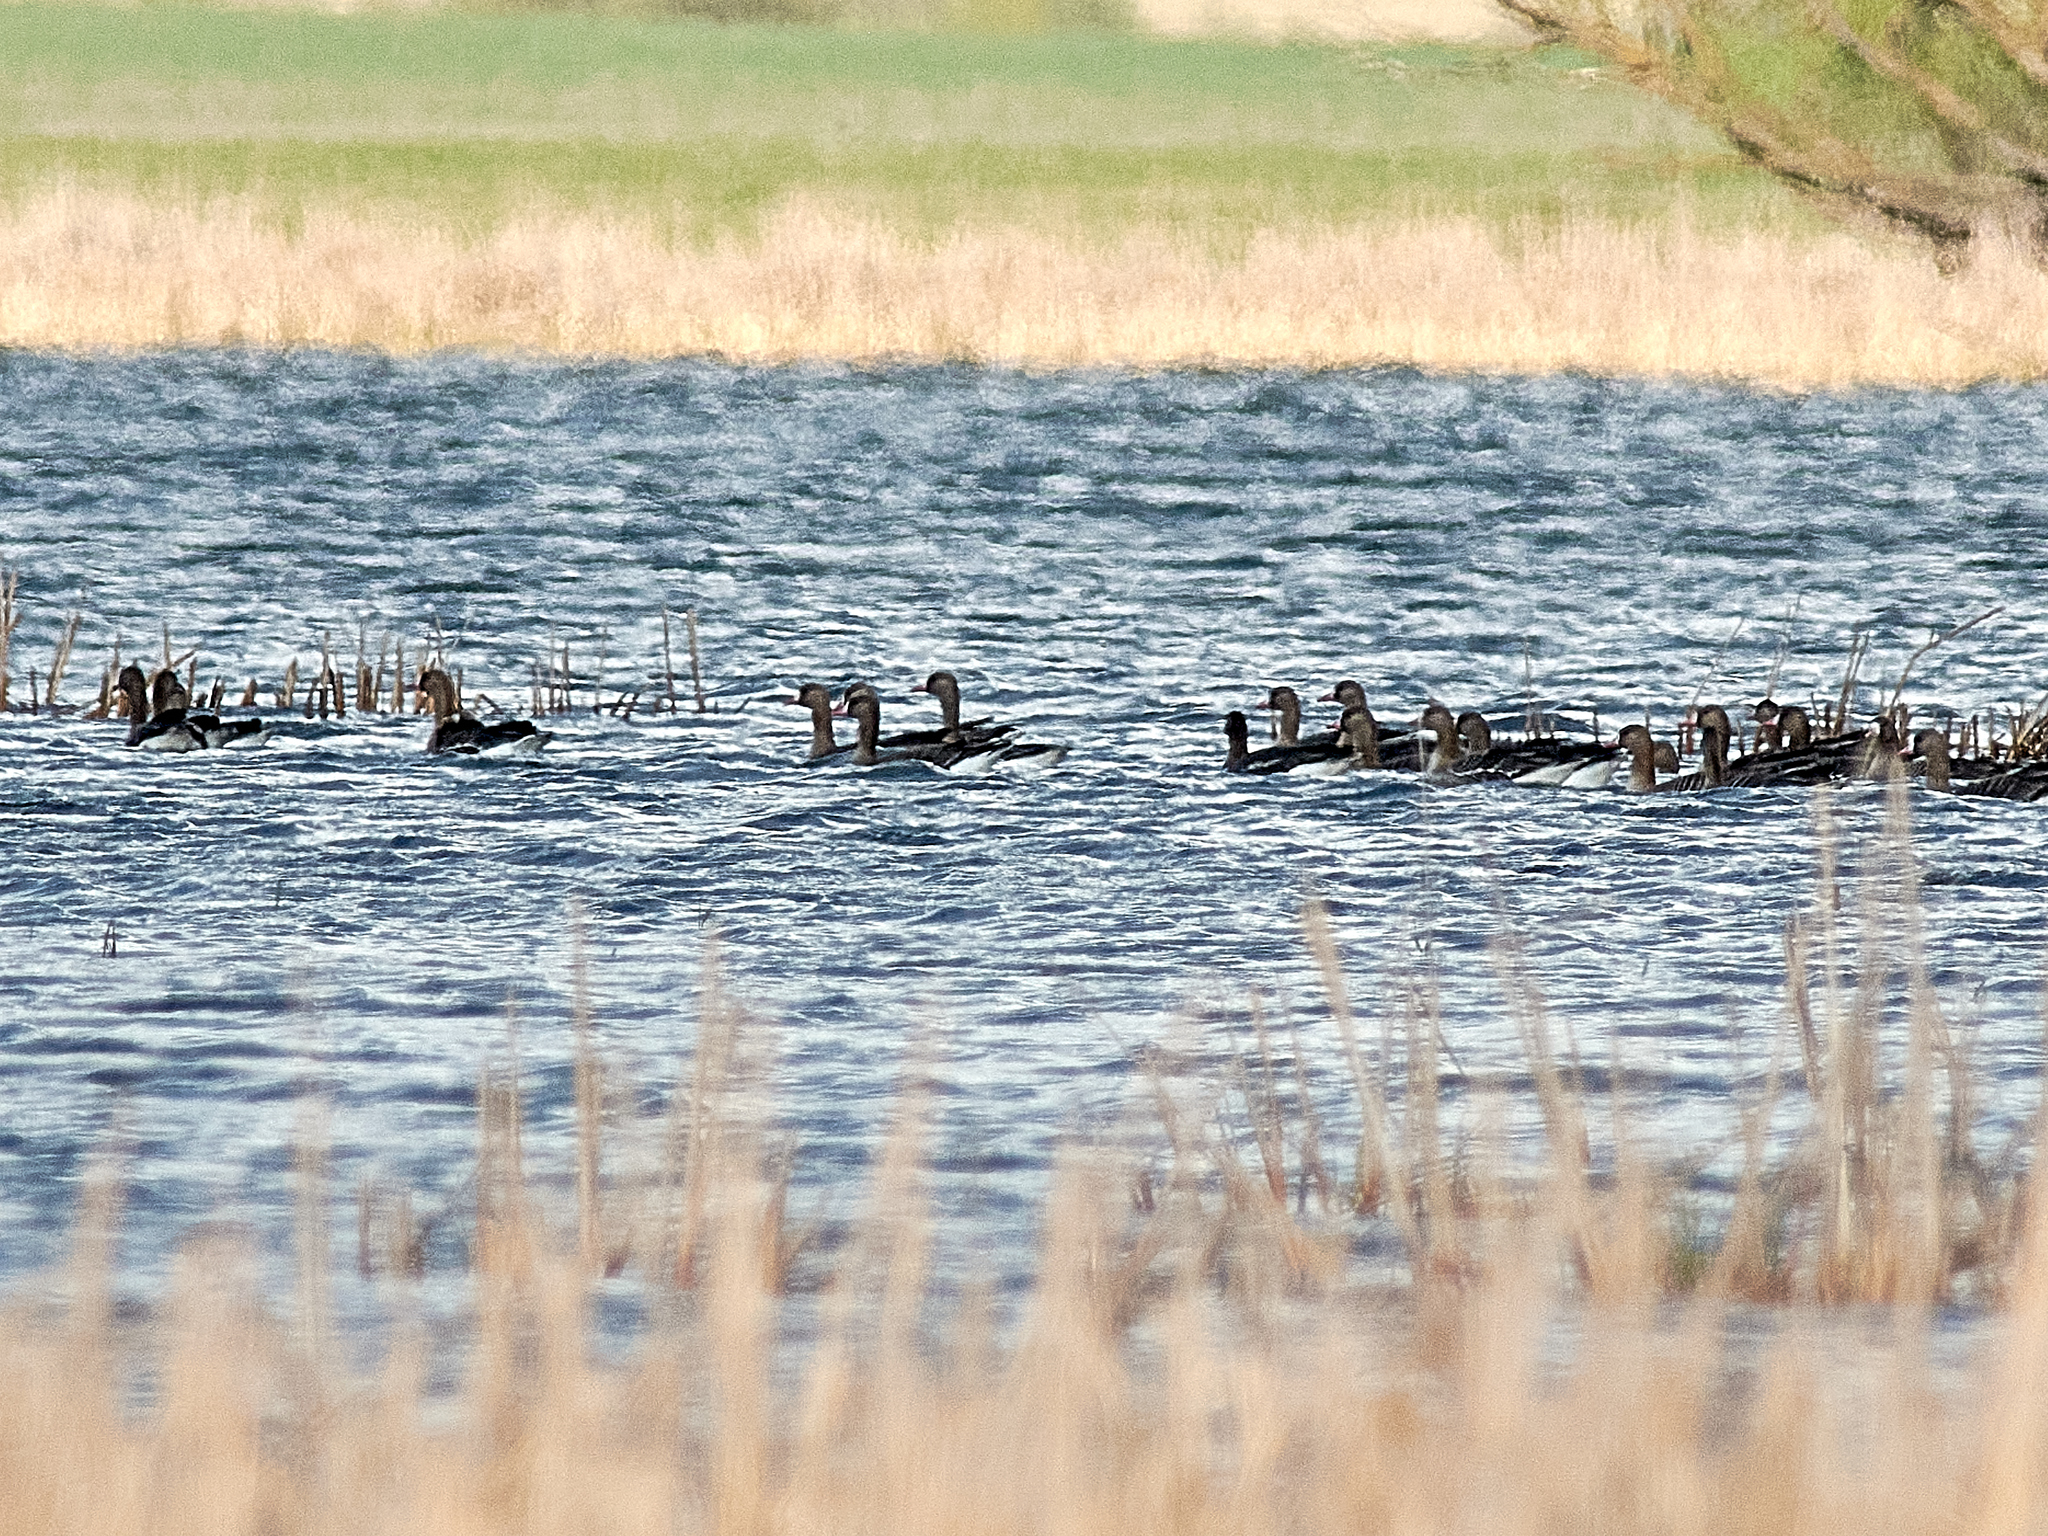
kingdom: Animalia
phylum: Chordata
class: Aves
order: Anseriformes
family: Anatidae
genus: Anser
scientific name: Anser albifrons
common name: Greater white-fronted goose
